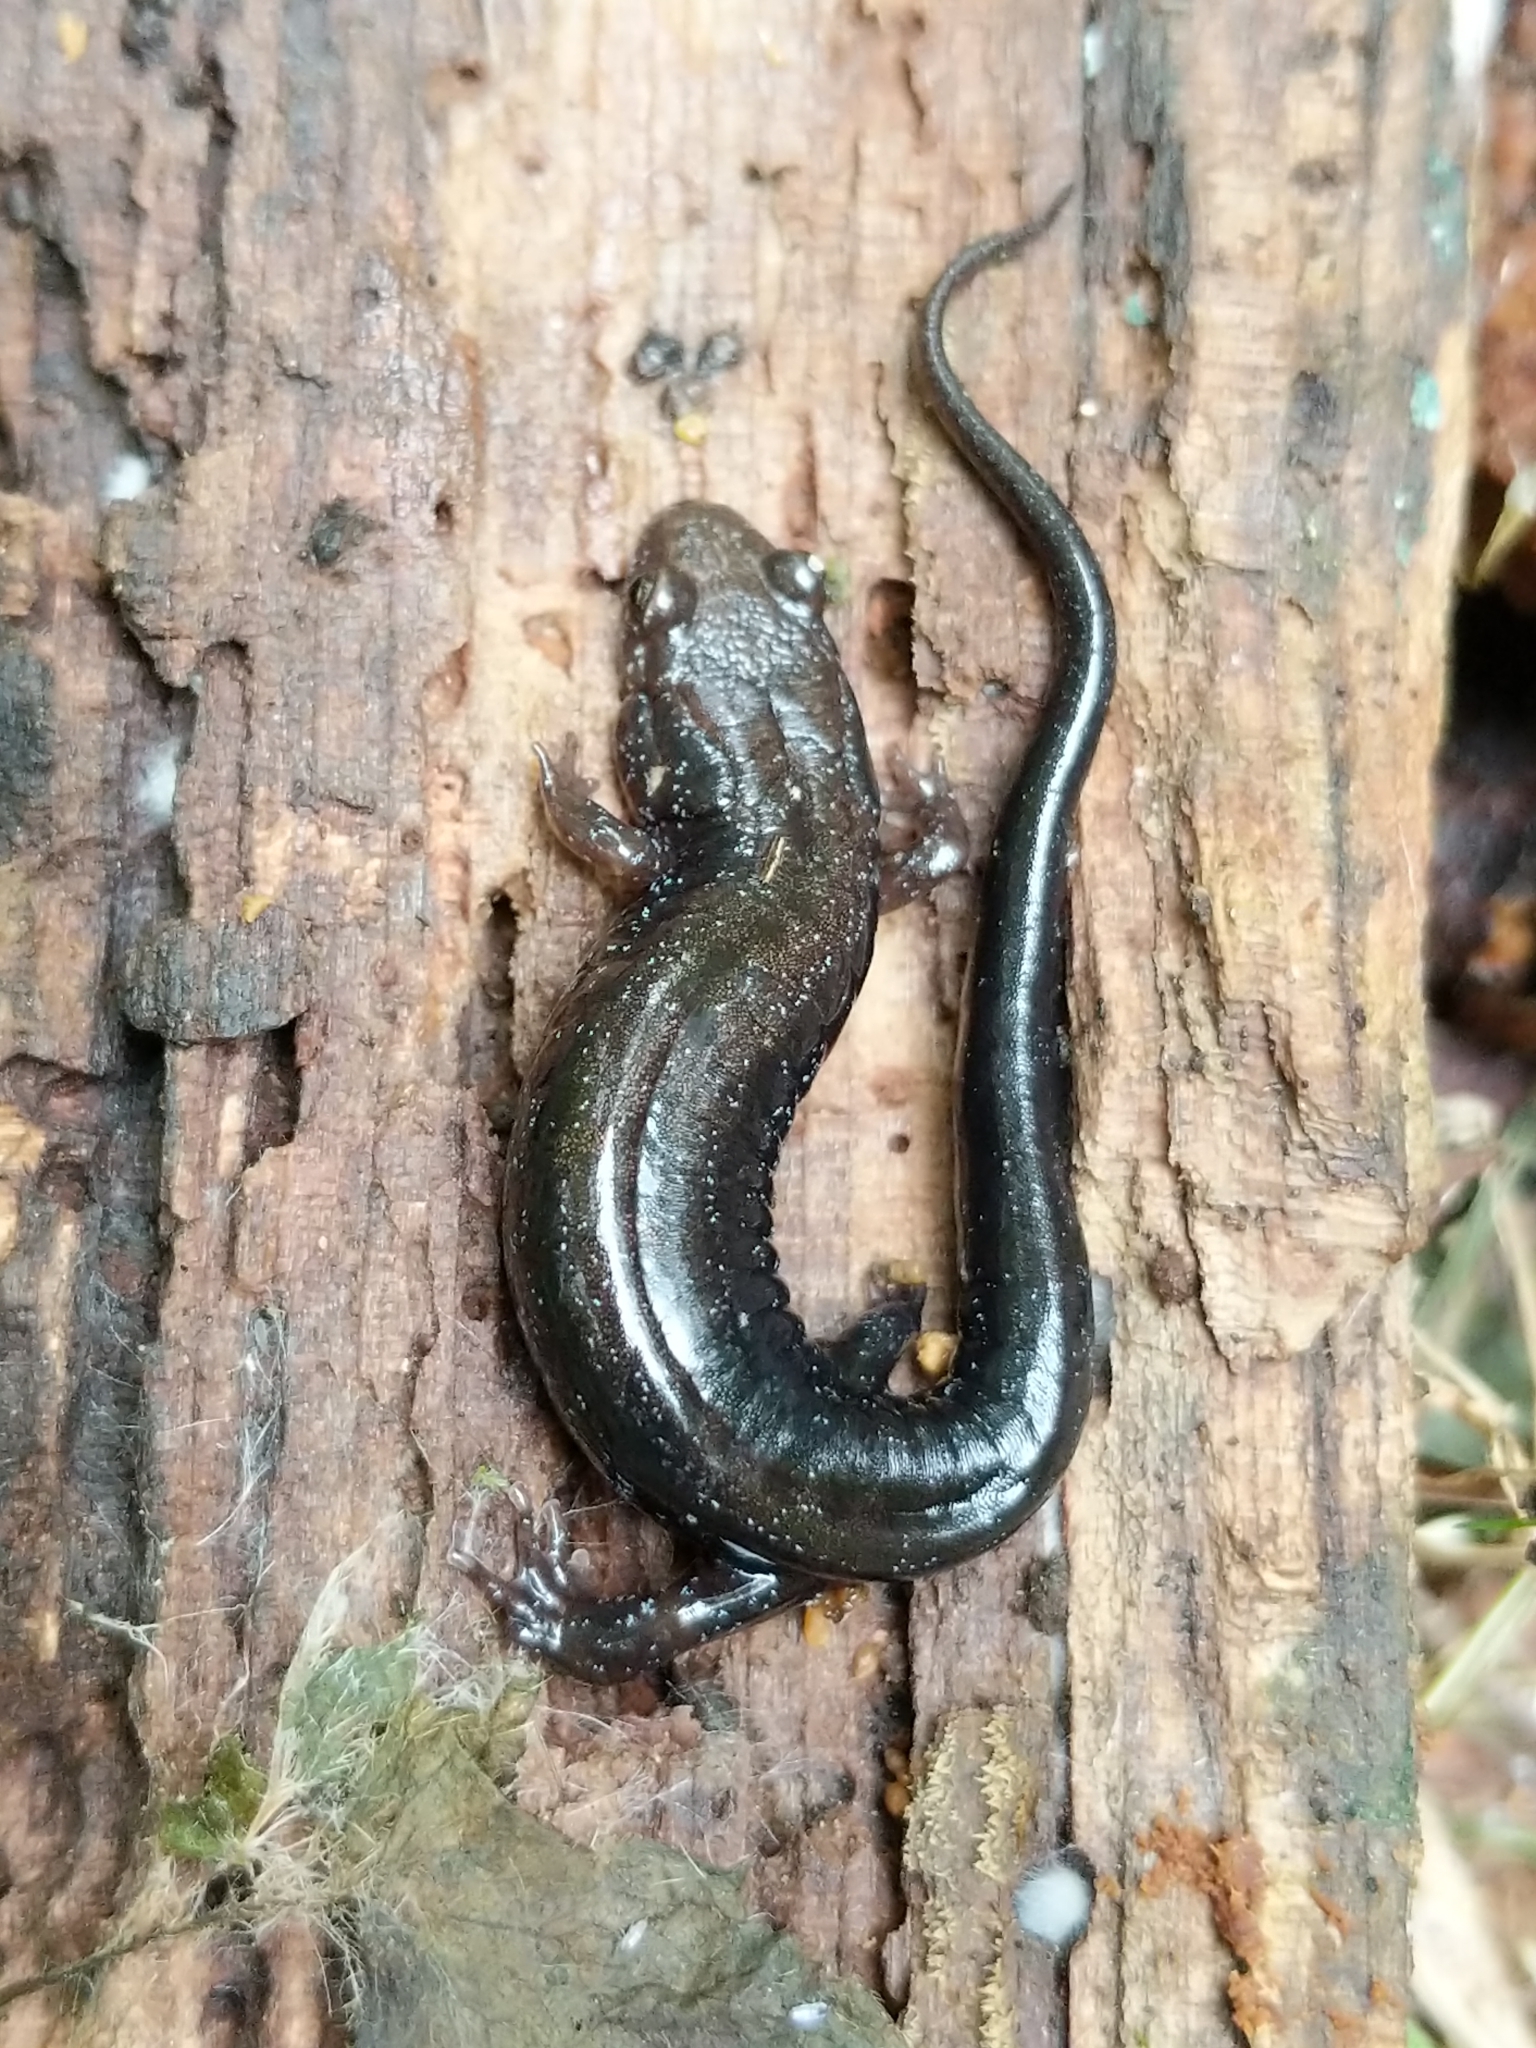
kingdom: Animalia
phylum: Chordata
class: Amphibia
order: Caudata
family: Plethodontidae
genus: Desmognathus
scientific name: Desmognathus ochrophaeus
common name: Allegheny mountain dusky salamander
